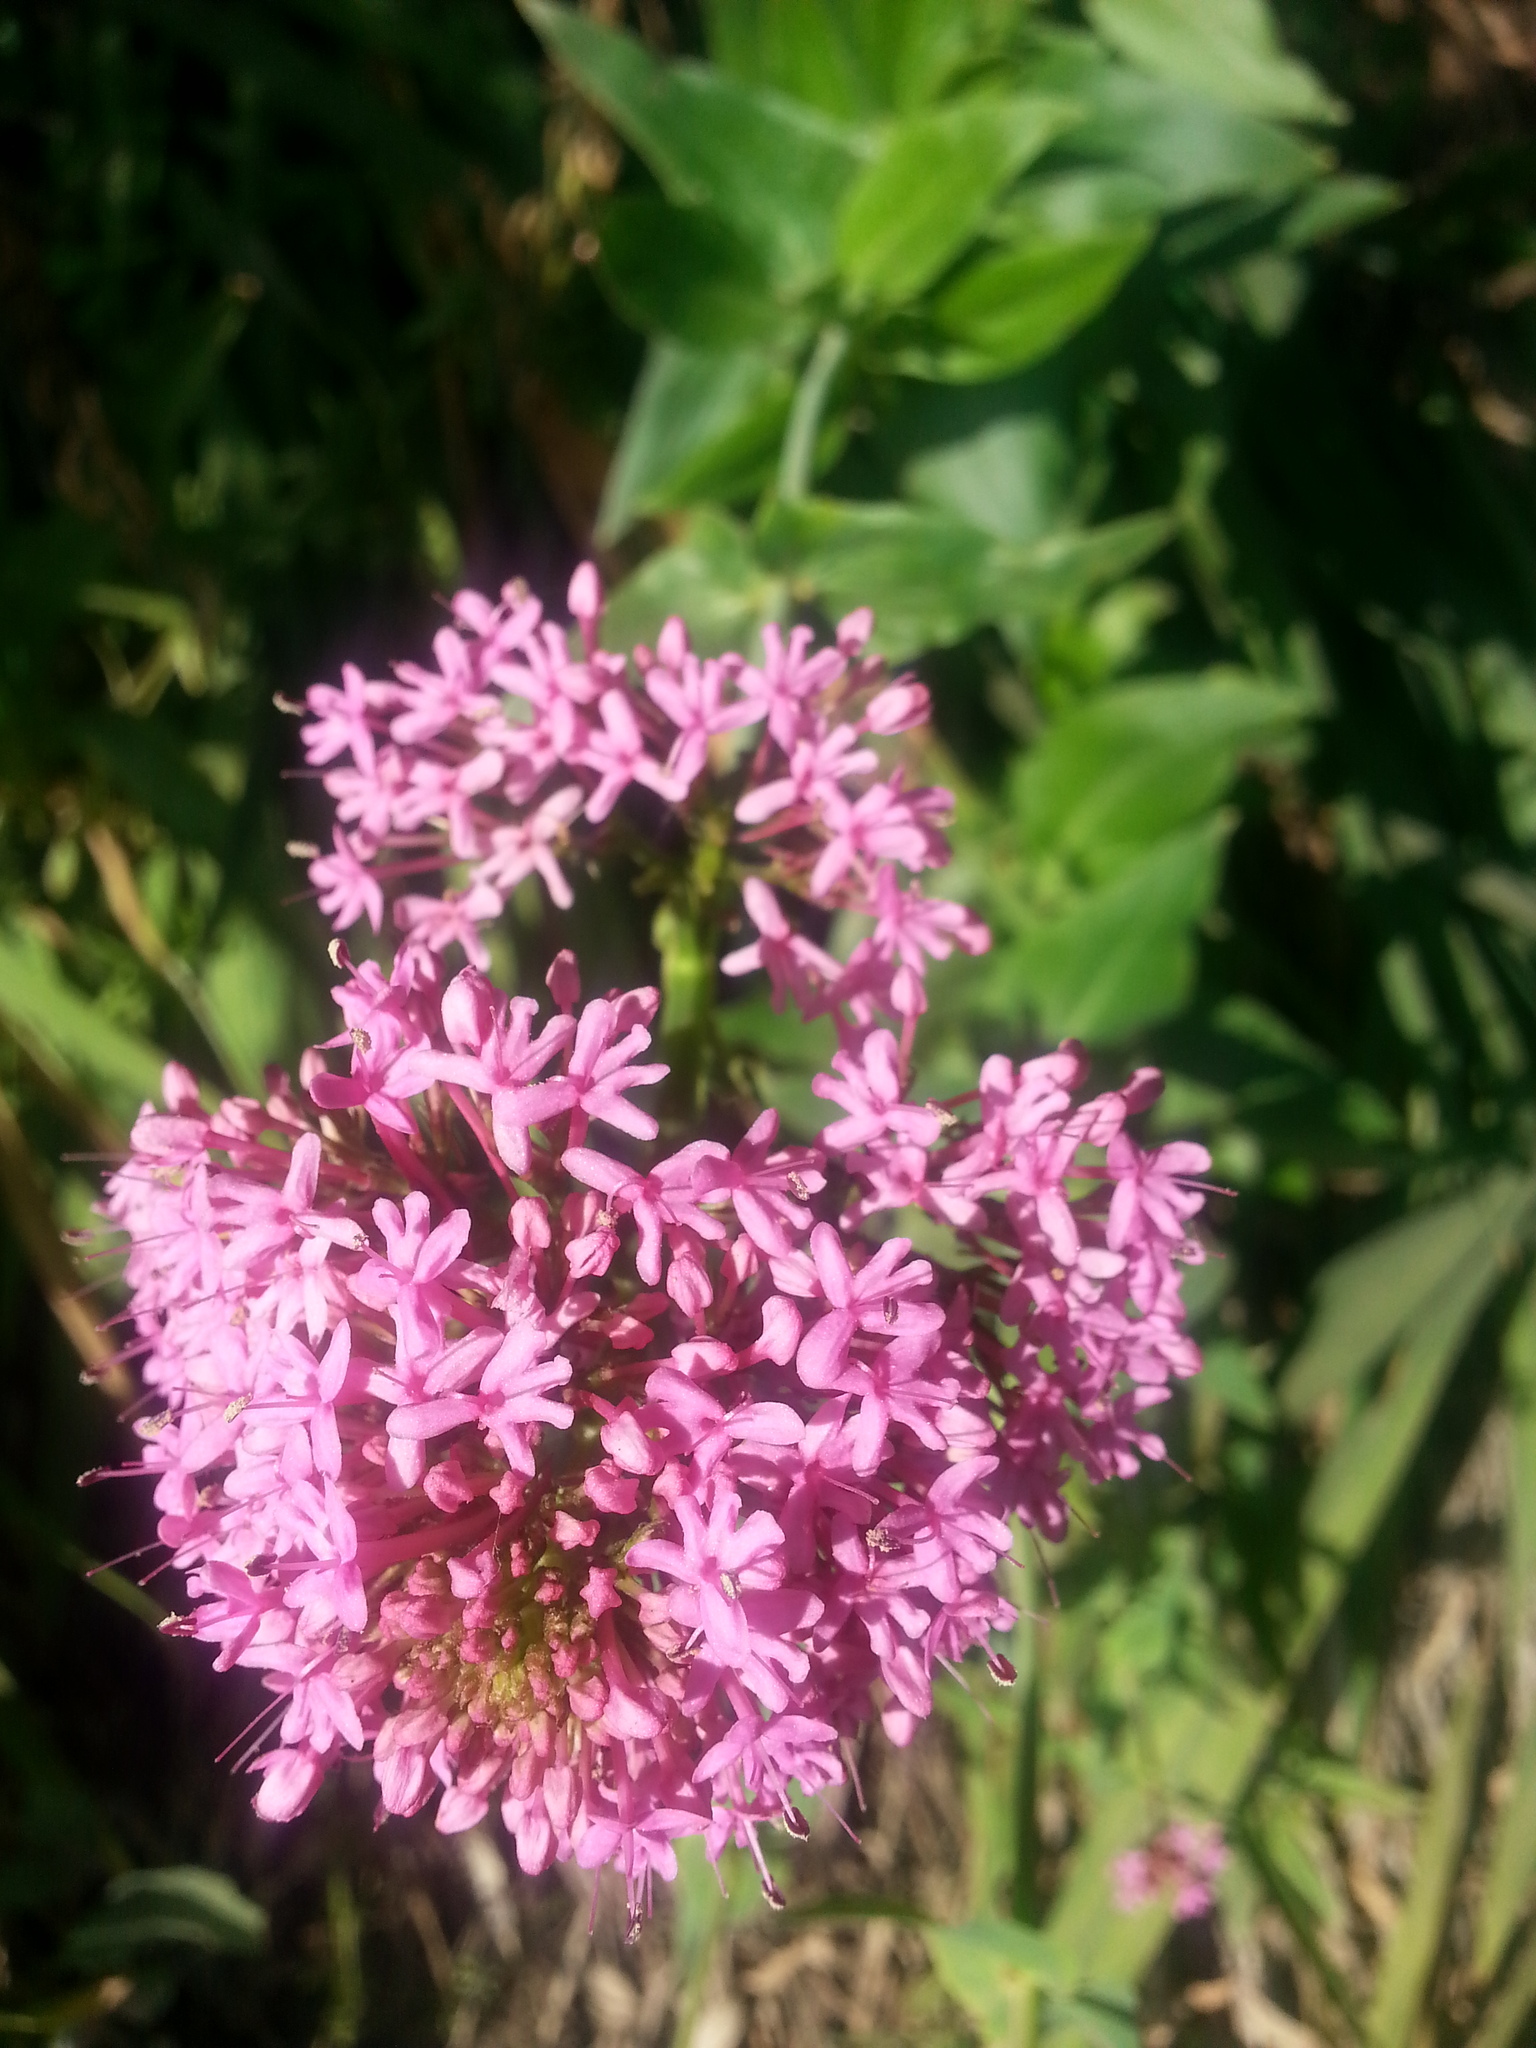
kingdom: Plantae
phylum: Tracheophyta
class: Magnoliopsida
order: Dipsacales
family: Caprifoliaceae
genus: Centranthus
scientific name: Centranthus ruber
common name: Red valerian
